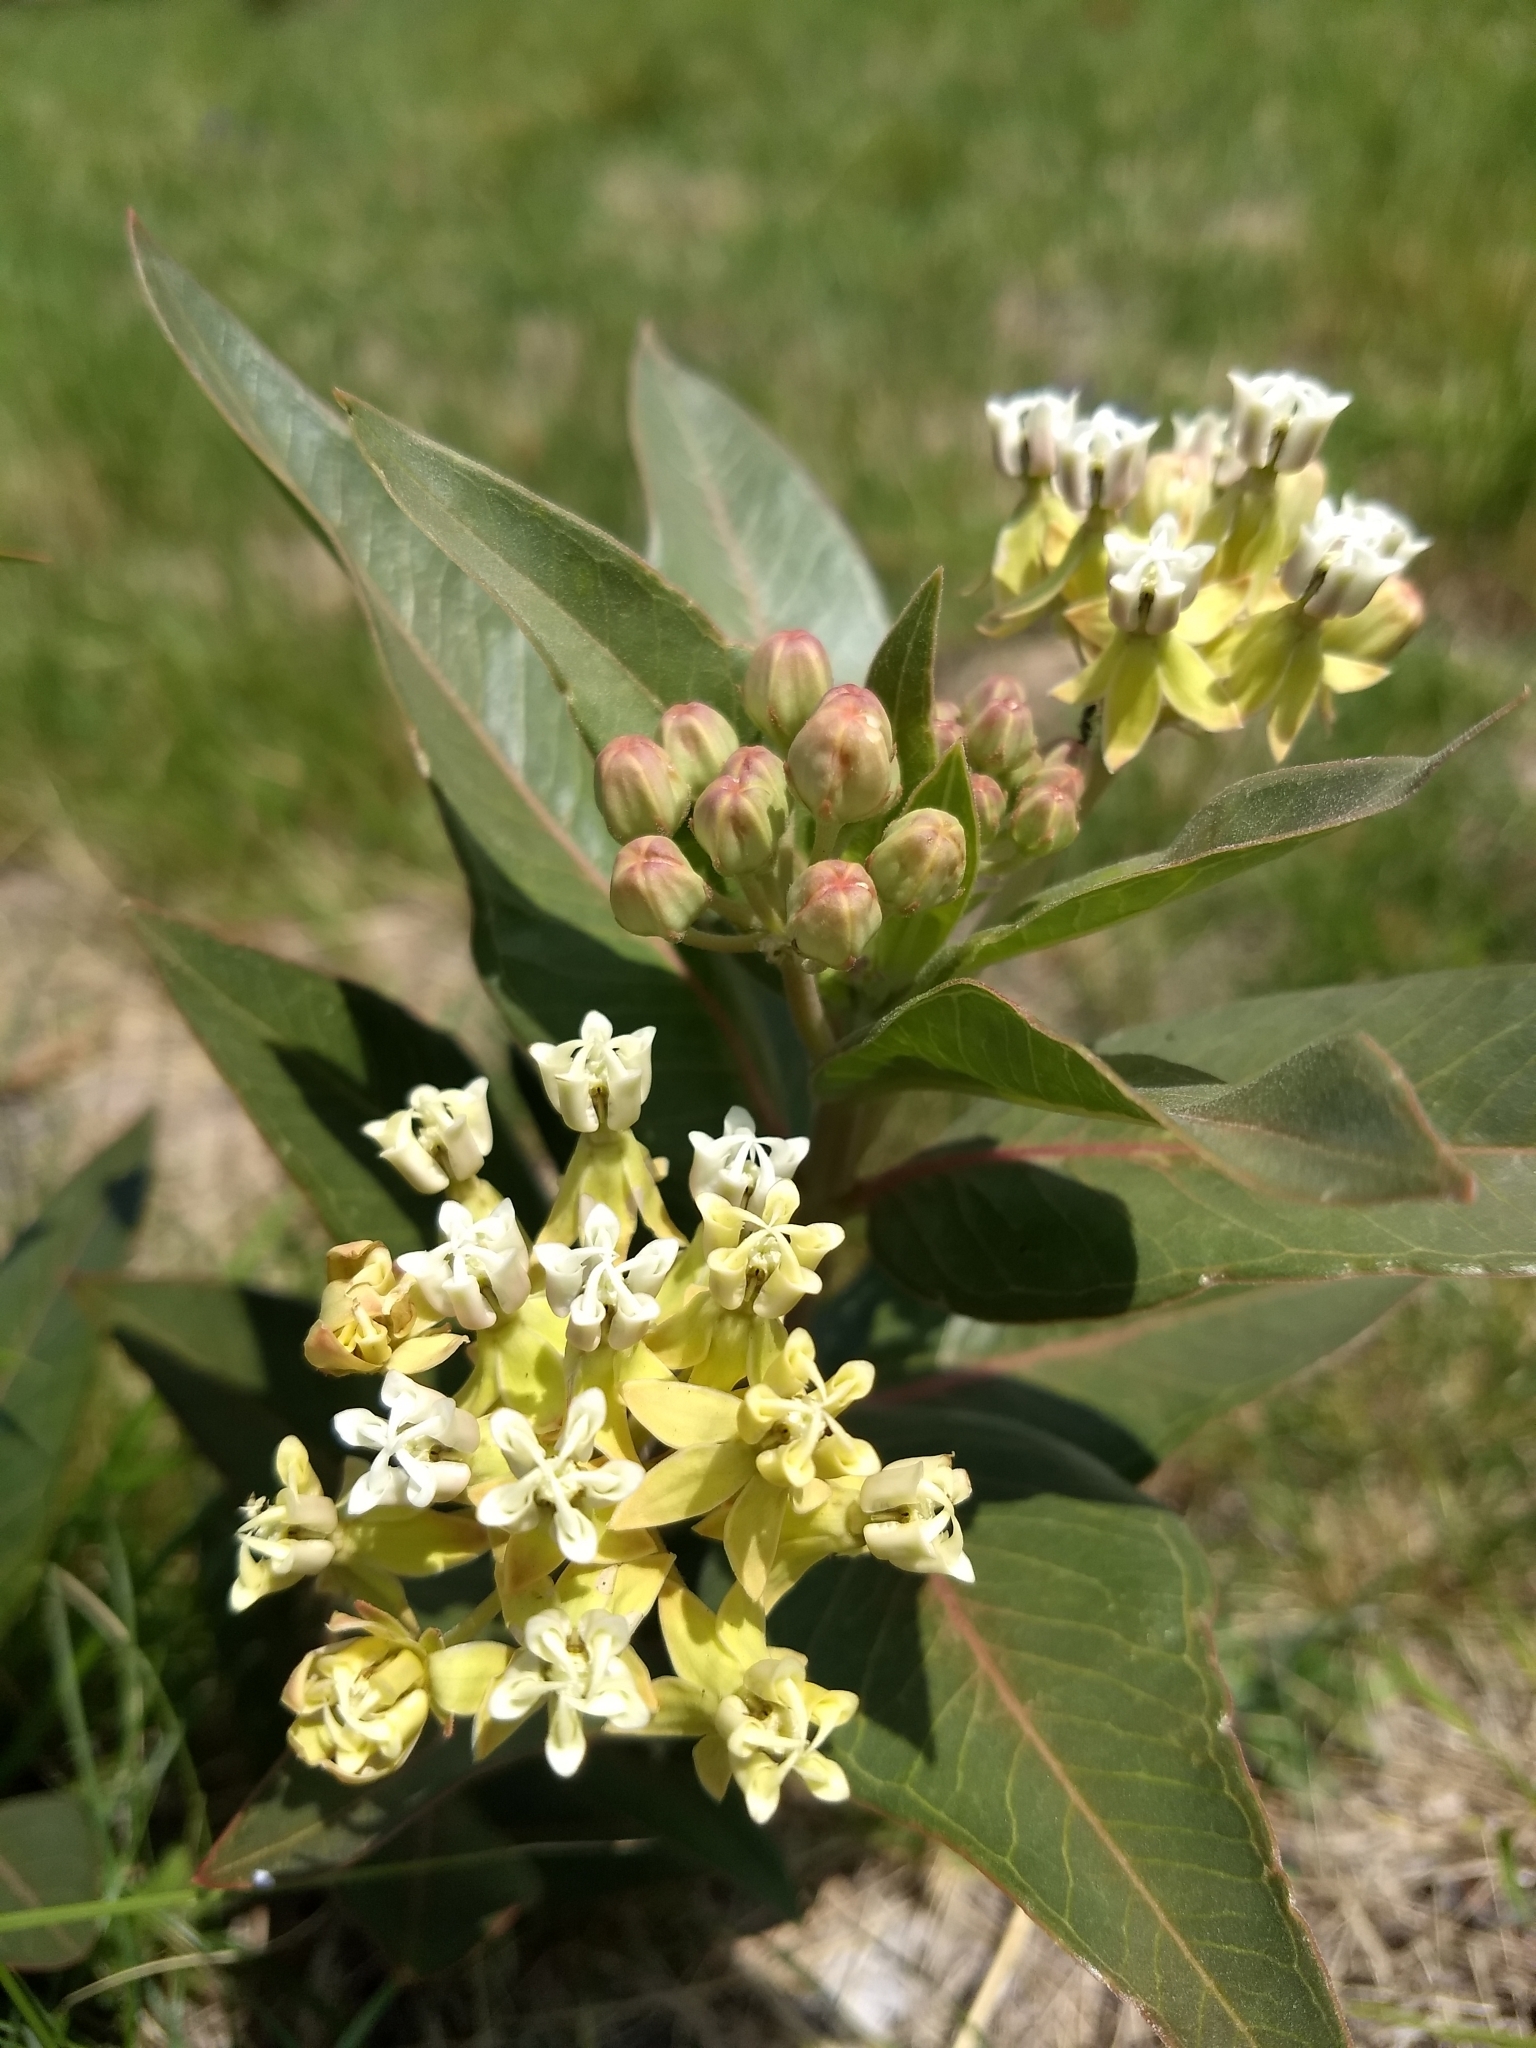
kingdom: Plantae
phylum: Tracheophyta
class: Magnoliopsida
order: Gentianales
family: Apocynaceae
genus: Asclepias
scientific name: Asclepias mellodora
